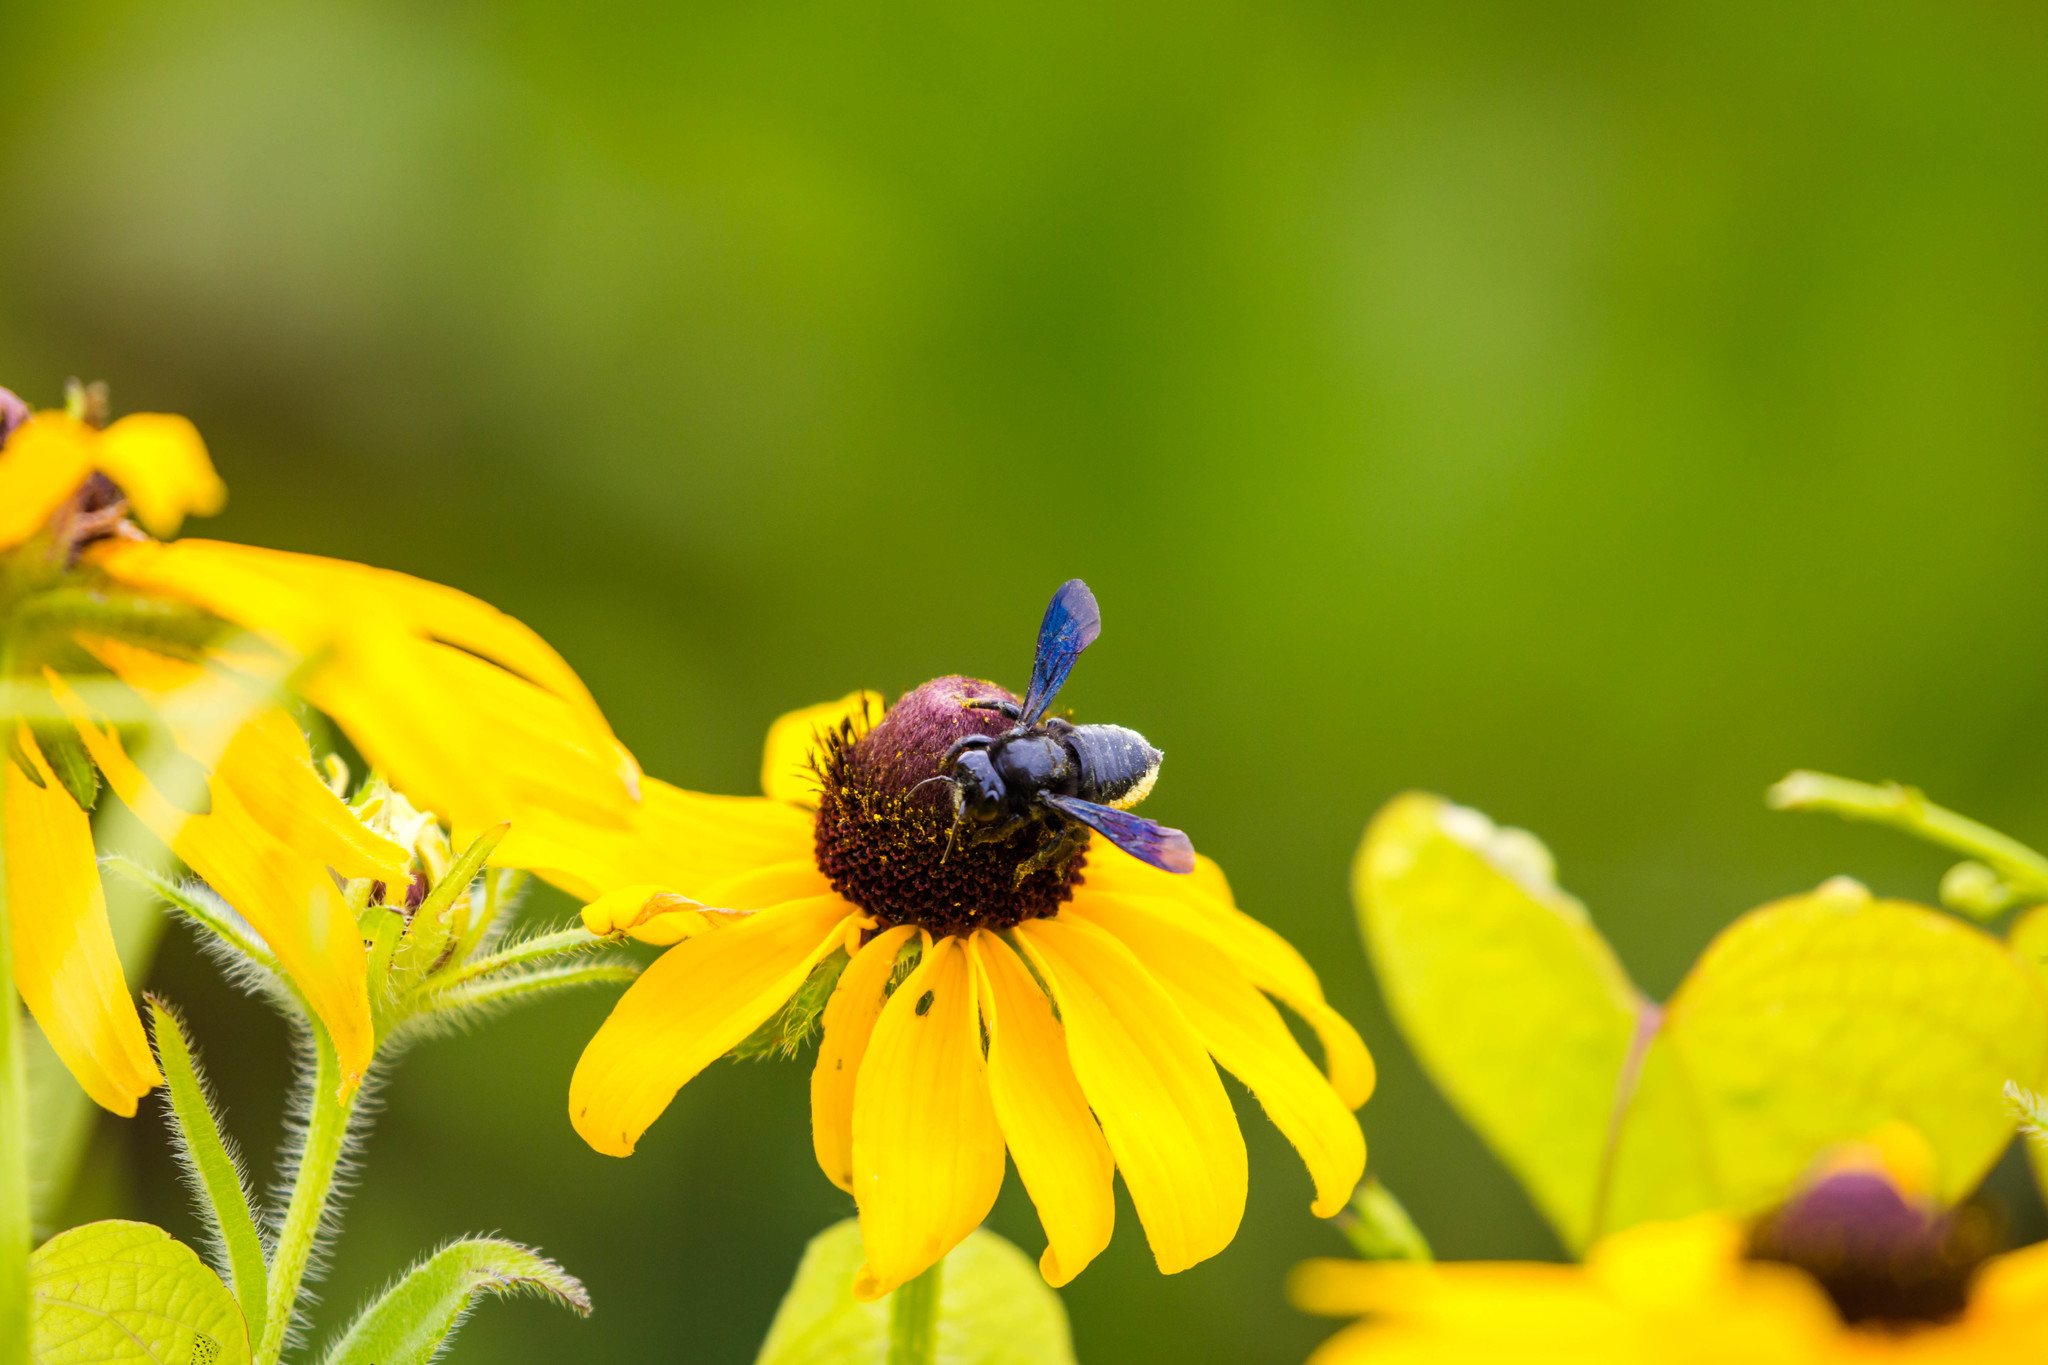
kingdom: Animalia
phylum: Arthropoda
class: Insecta
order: Hymenoptera
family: Megachilidae
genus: Megachile
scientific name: Megachile xylocopoides
